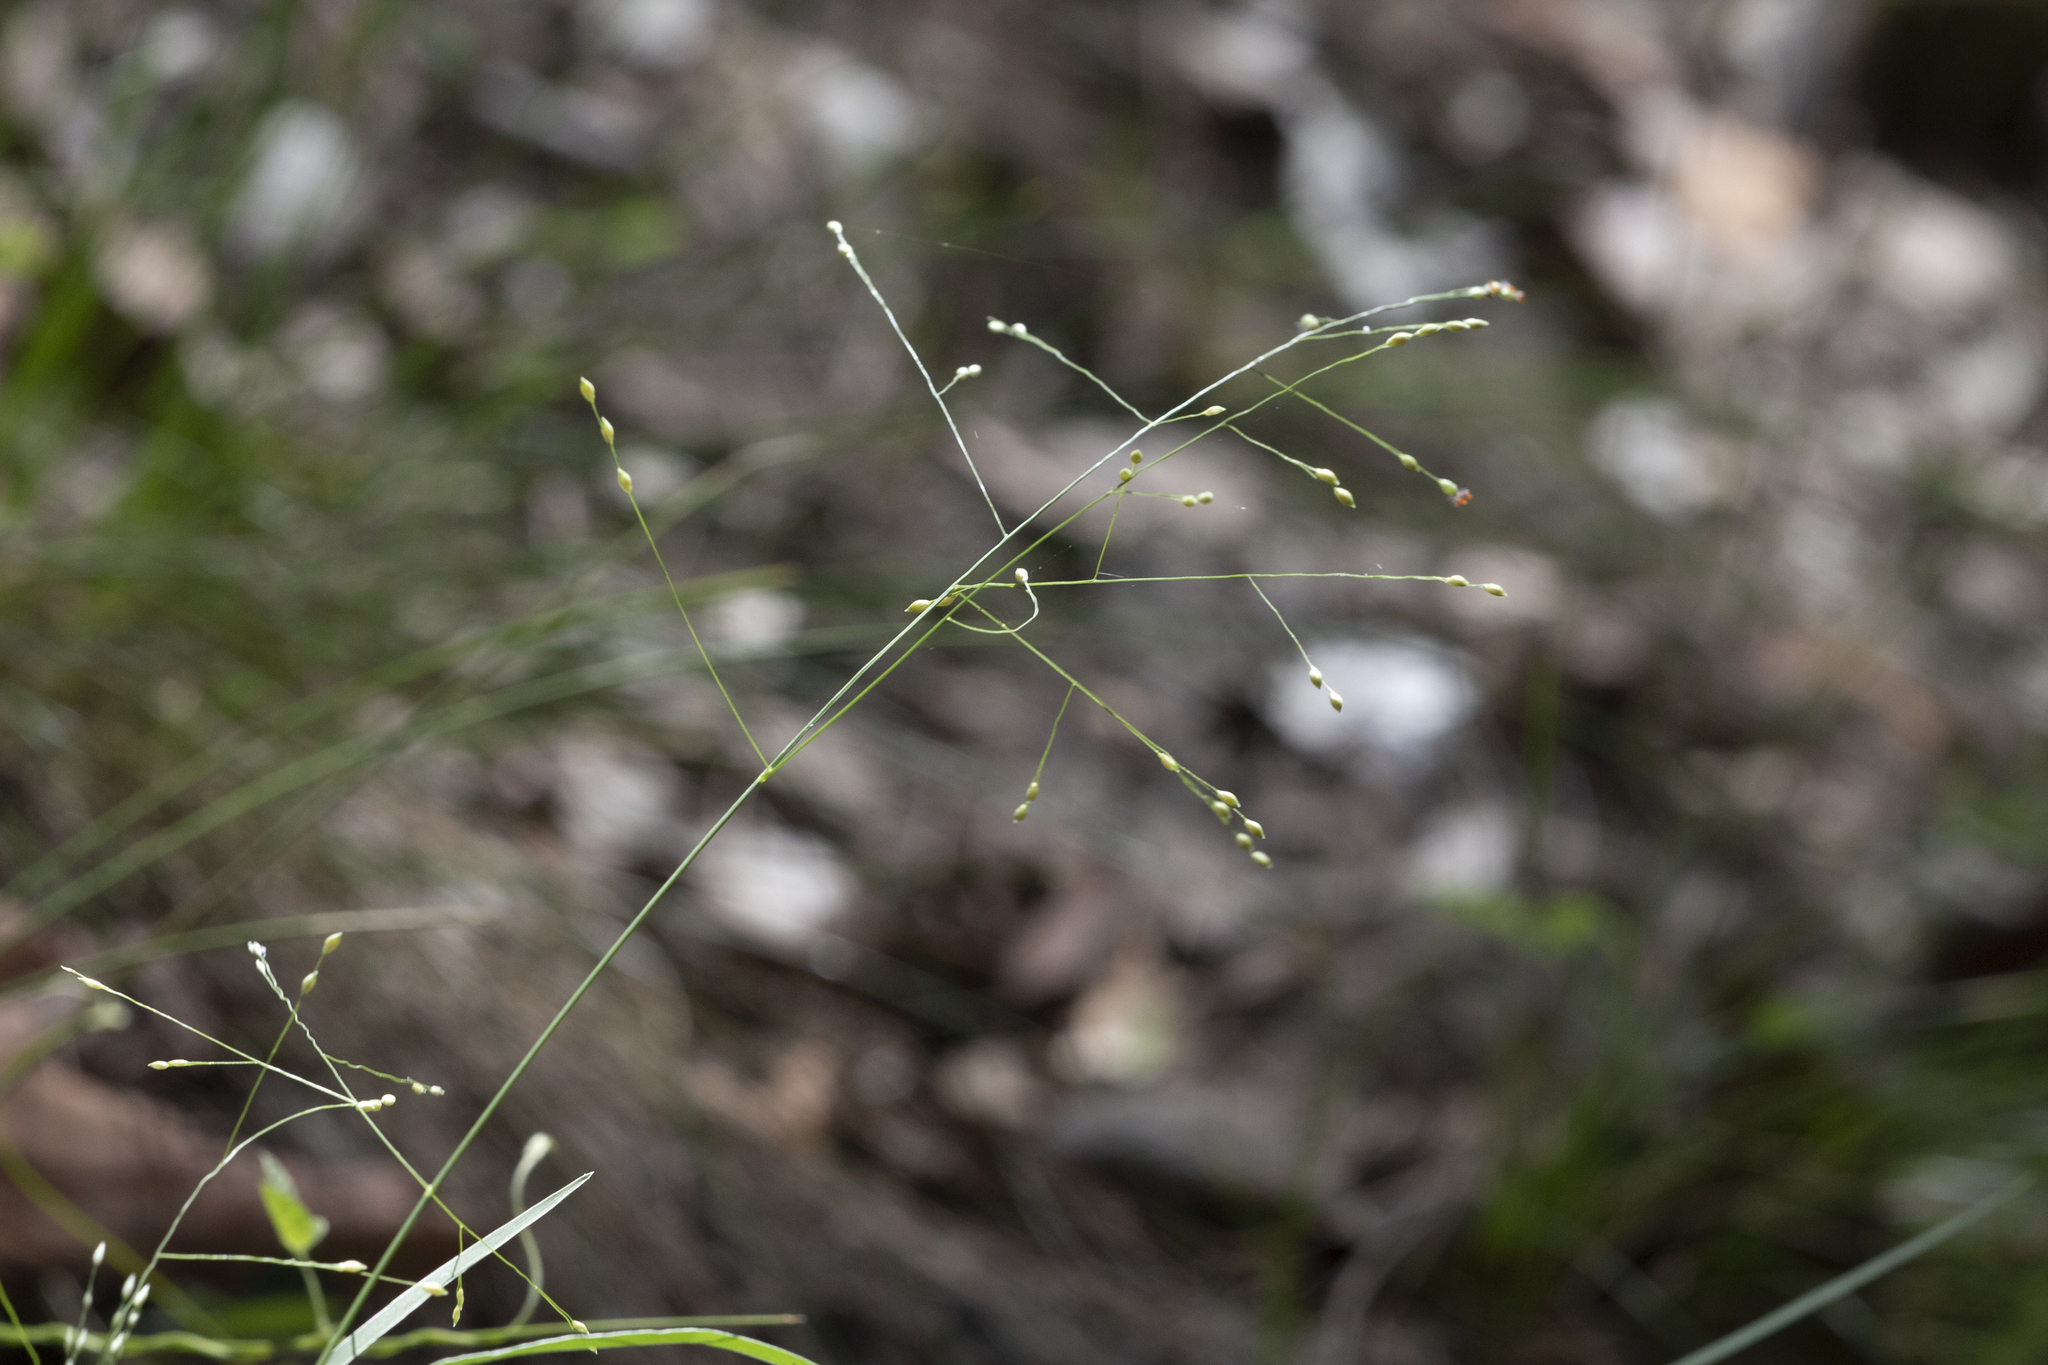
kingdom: Plantae
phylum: Tracheophyta
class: Liliopsida
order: Poales
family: Poaceae
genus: Panicum
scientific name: Panicum effusum
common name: Hairy panic grass
